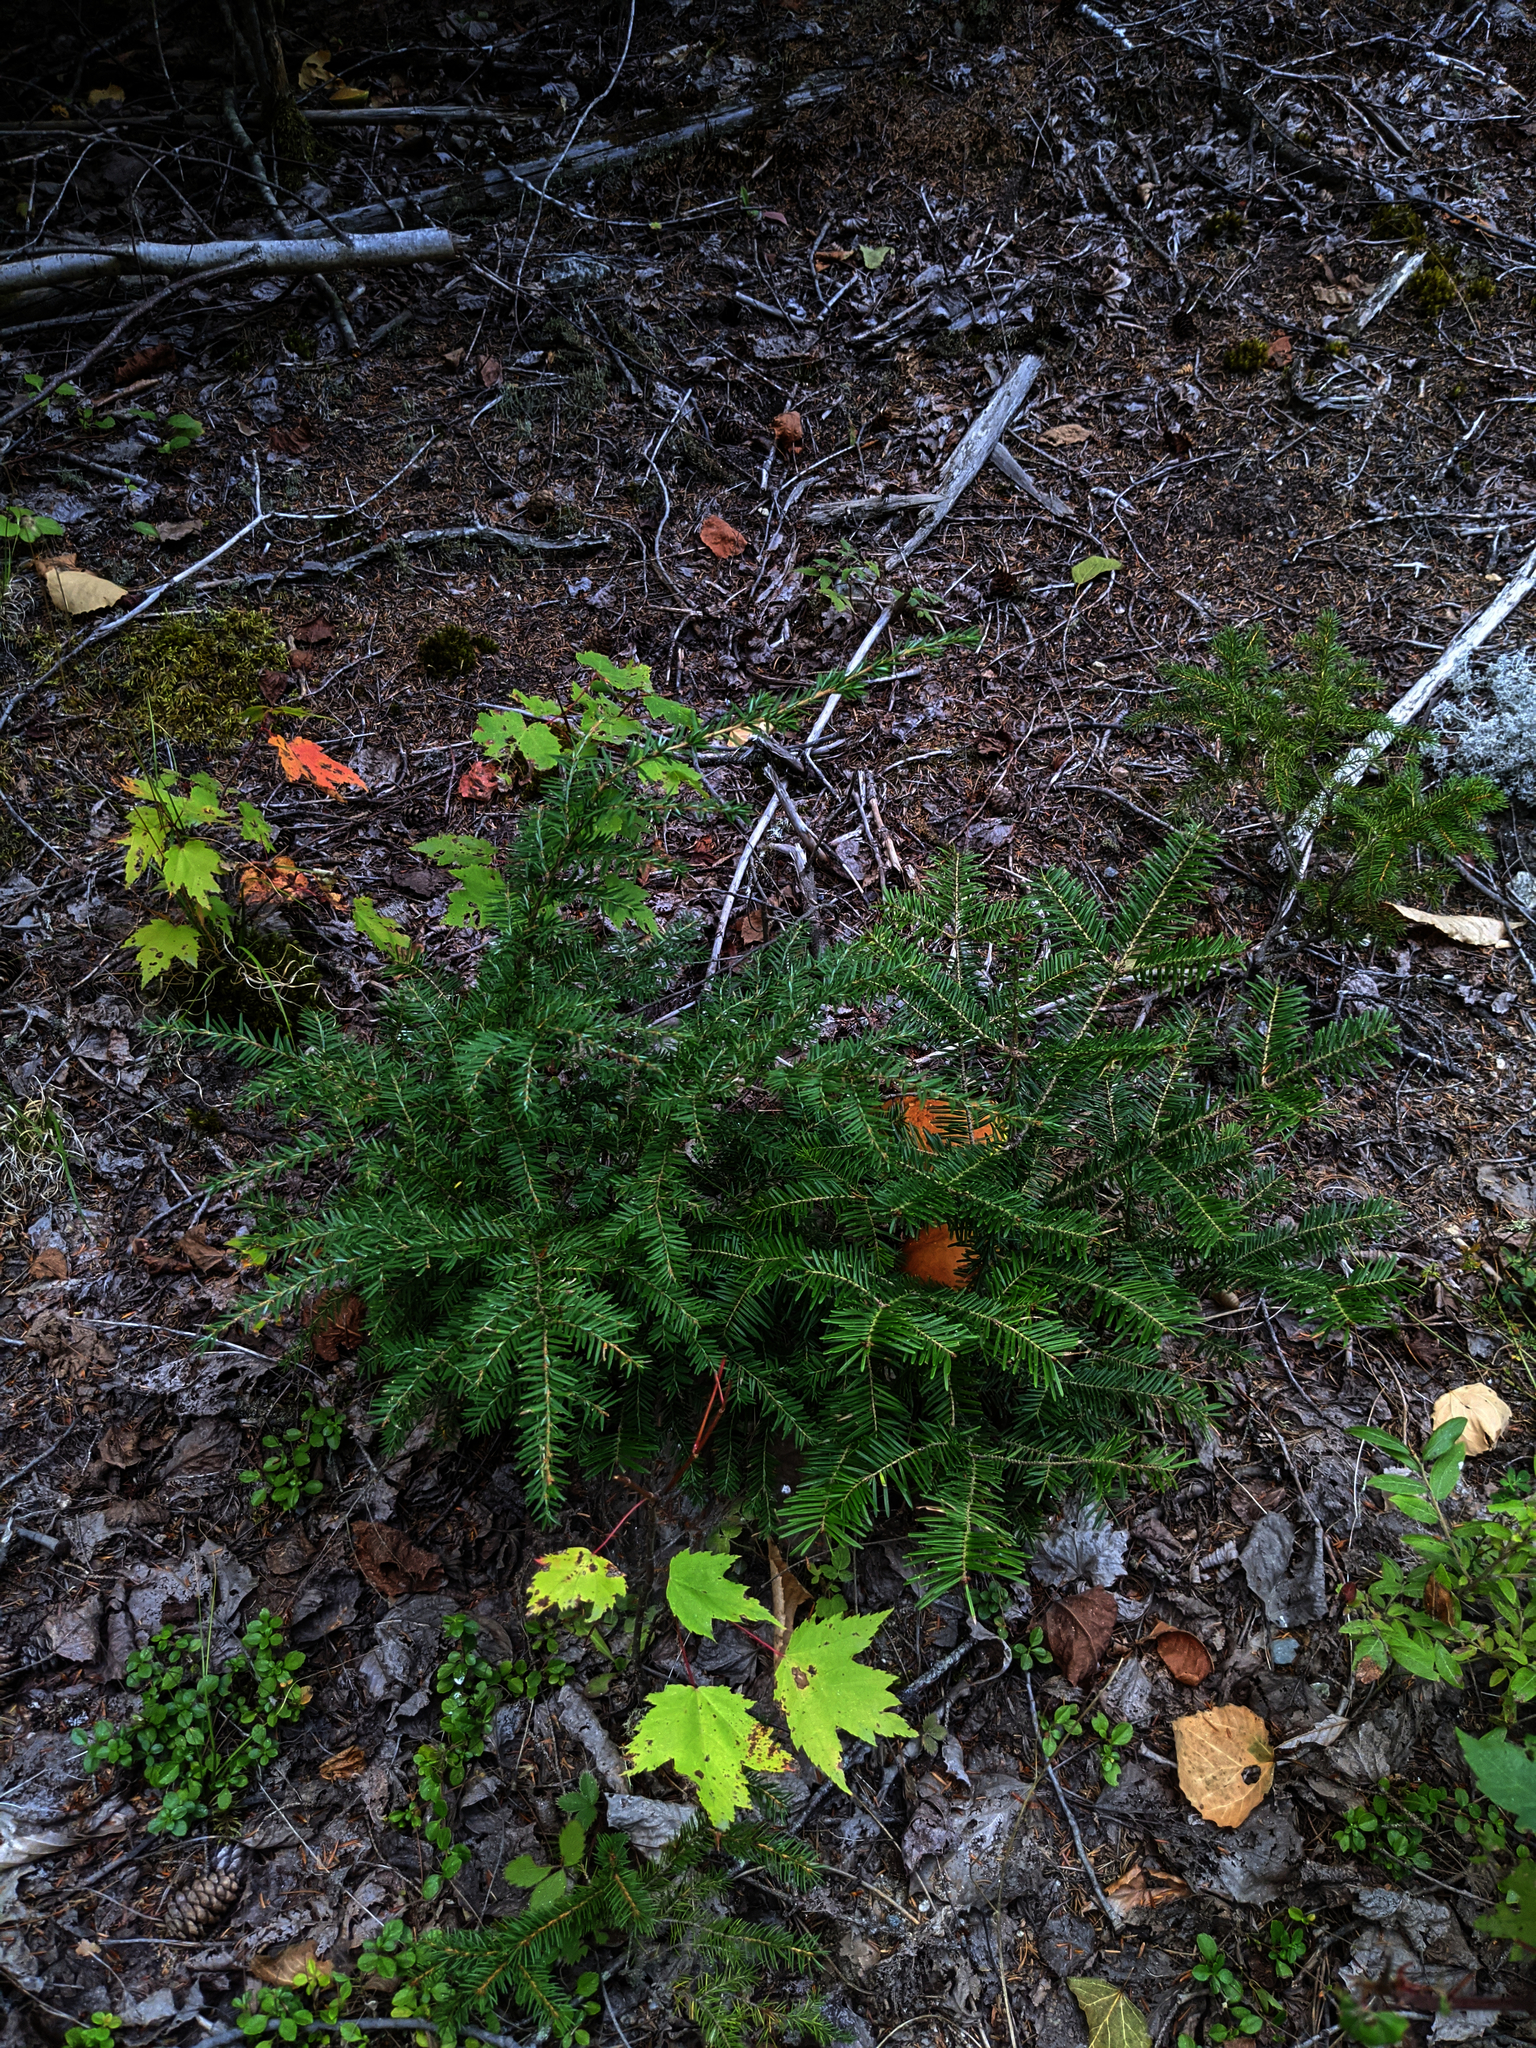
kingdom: Plantae
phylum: Tracheophyta
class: Pinopsida
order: Pinales
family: Pinaceae
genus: Abies
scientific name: Abies balsamea
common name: Balsam fir
